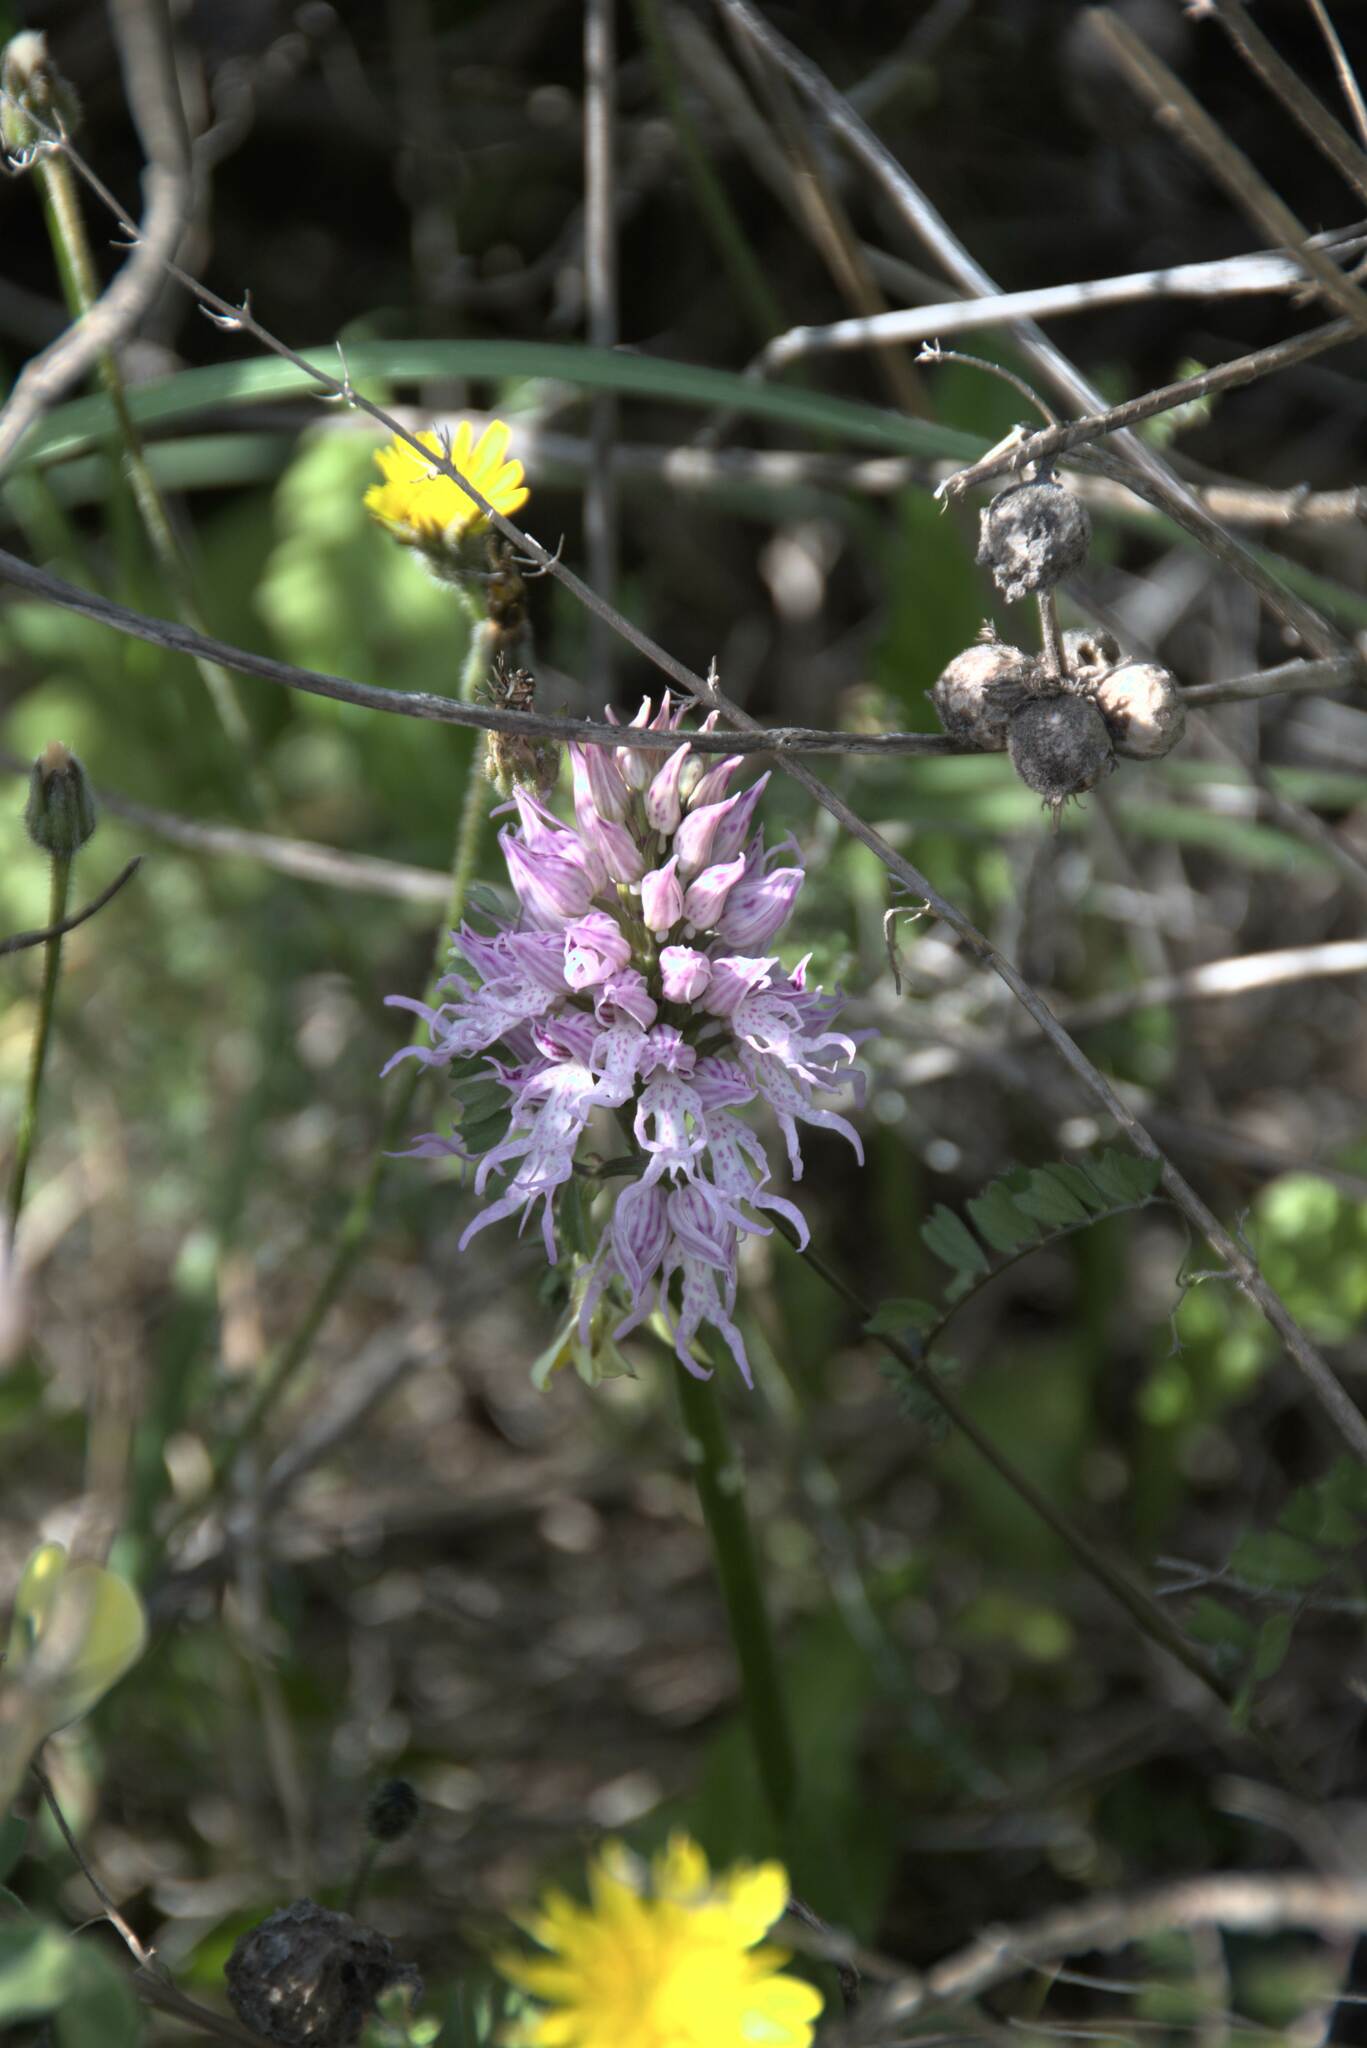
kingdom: Plantae
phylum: Tracheophyta
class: Liliopsida
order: Asparagales
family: Orchidaceae
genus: Orchis
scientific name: Orchis italica
